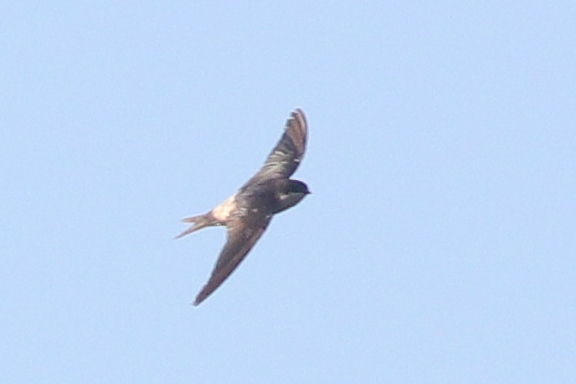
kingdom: Animalia
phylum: Chordata
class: Aves
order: Passeriformes
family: Hirundinidae
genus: Delichon
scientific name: Delichon urbicum
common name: Common house martin
